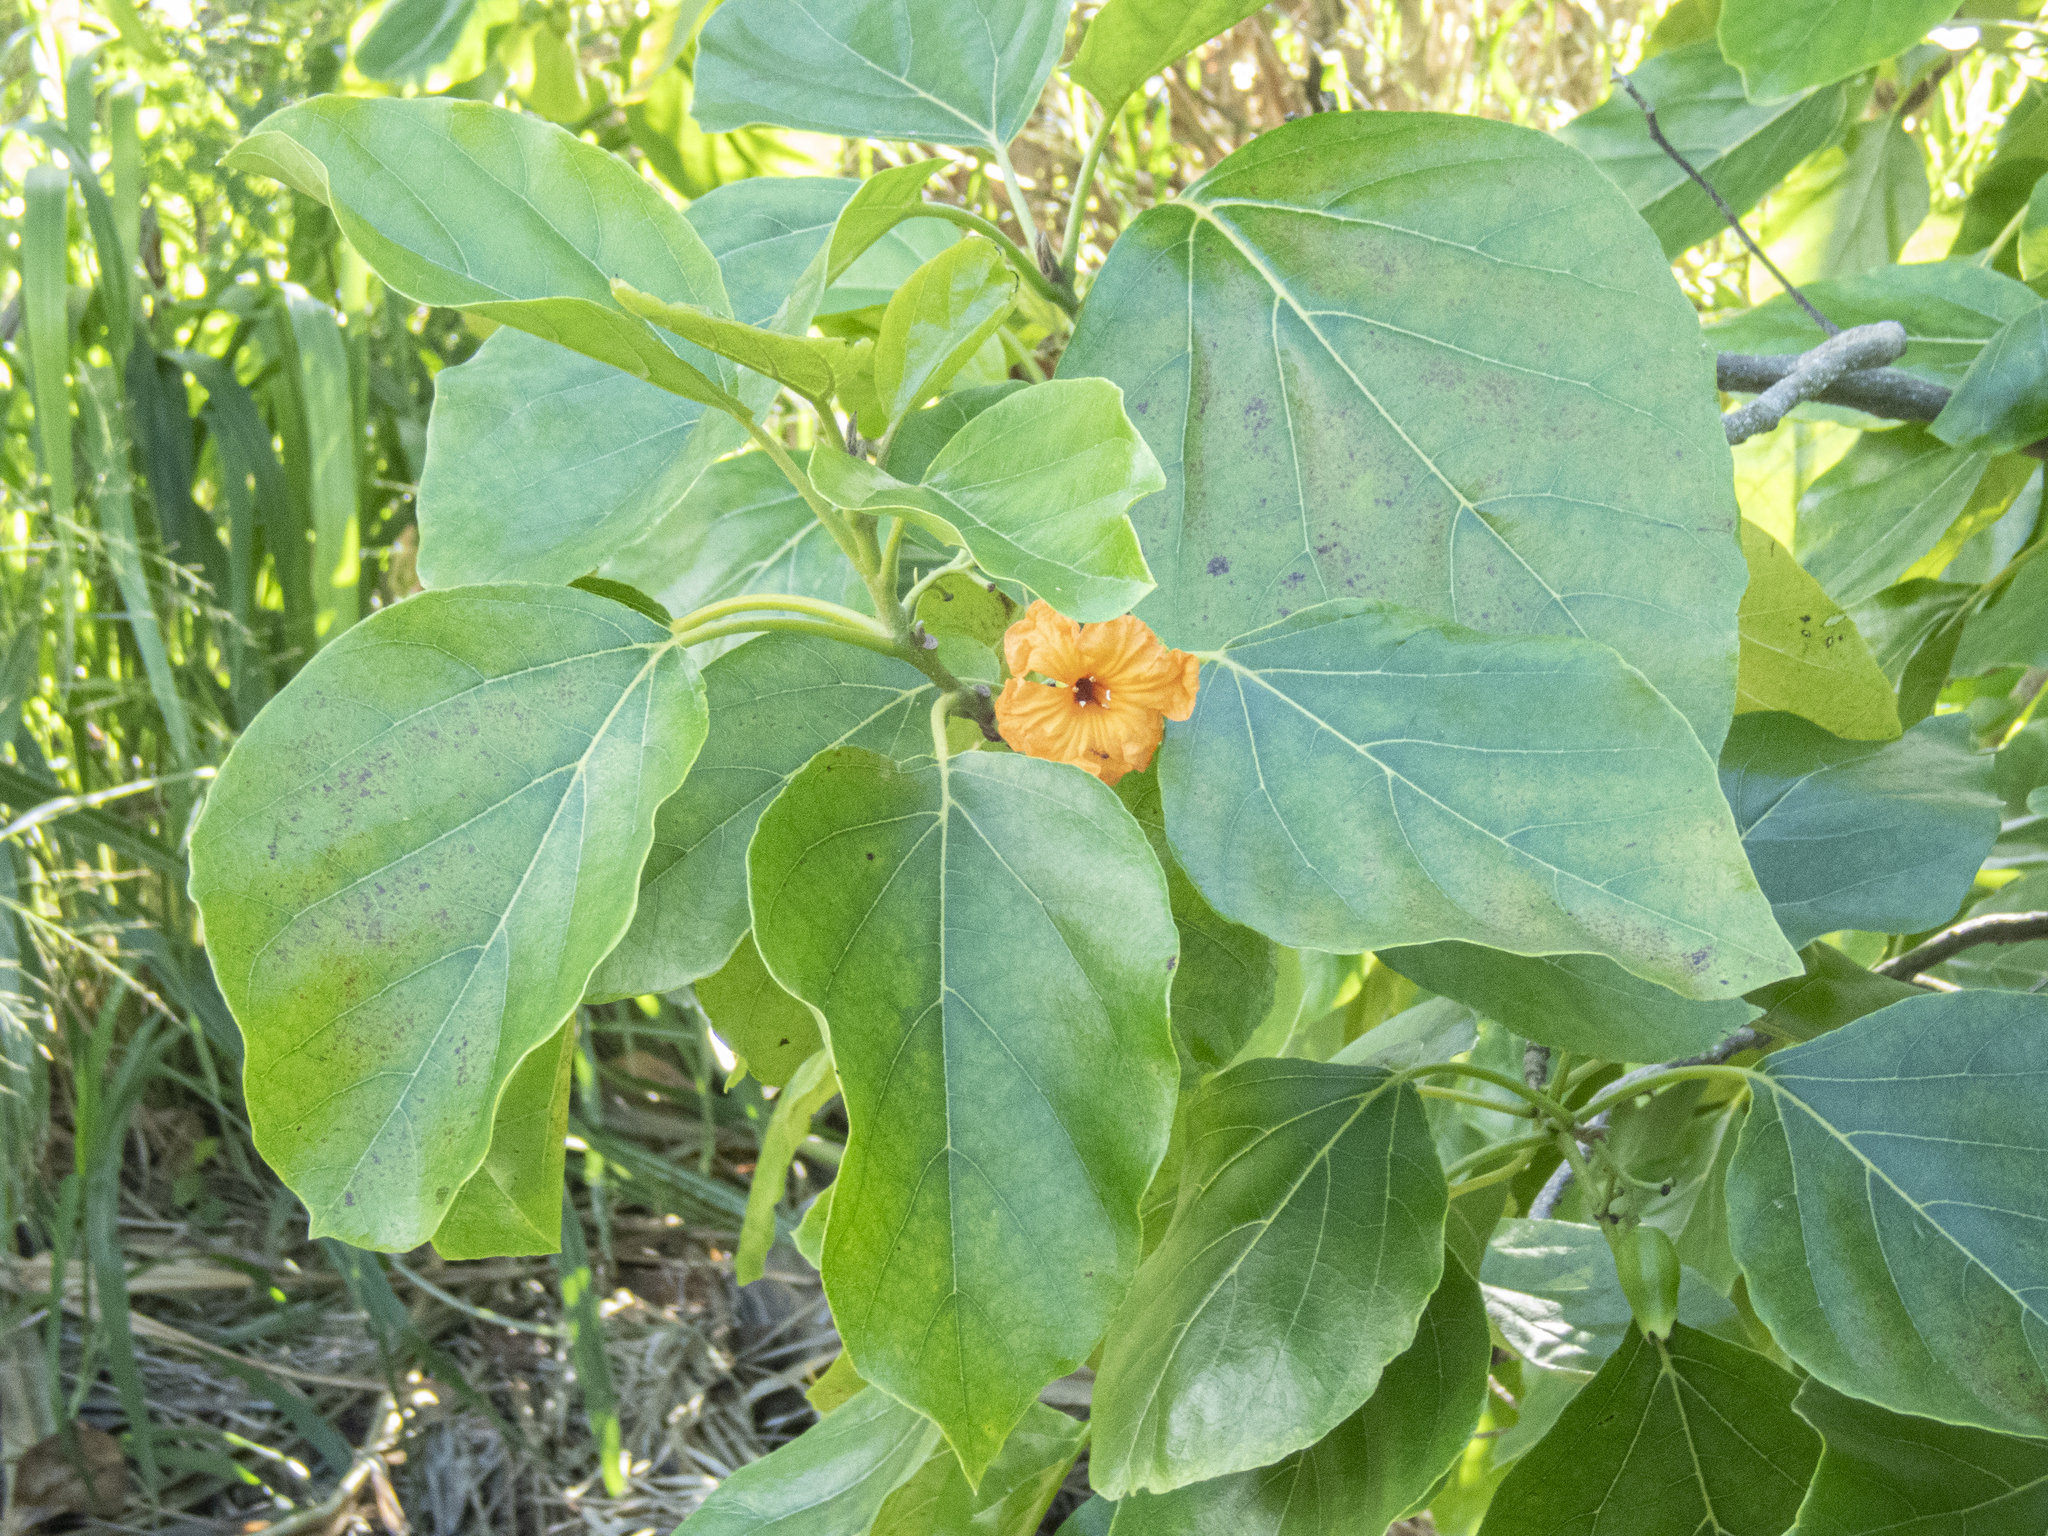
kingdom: Plantae
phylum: Tracheophyta
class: Magnoliopsida
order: Boraginales
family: Cordiaceae
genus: Cordia
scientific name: Cordia subcordata
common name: Mareer
